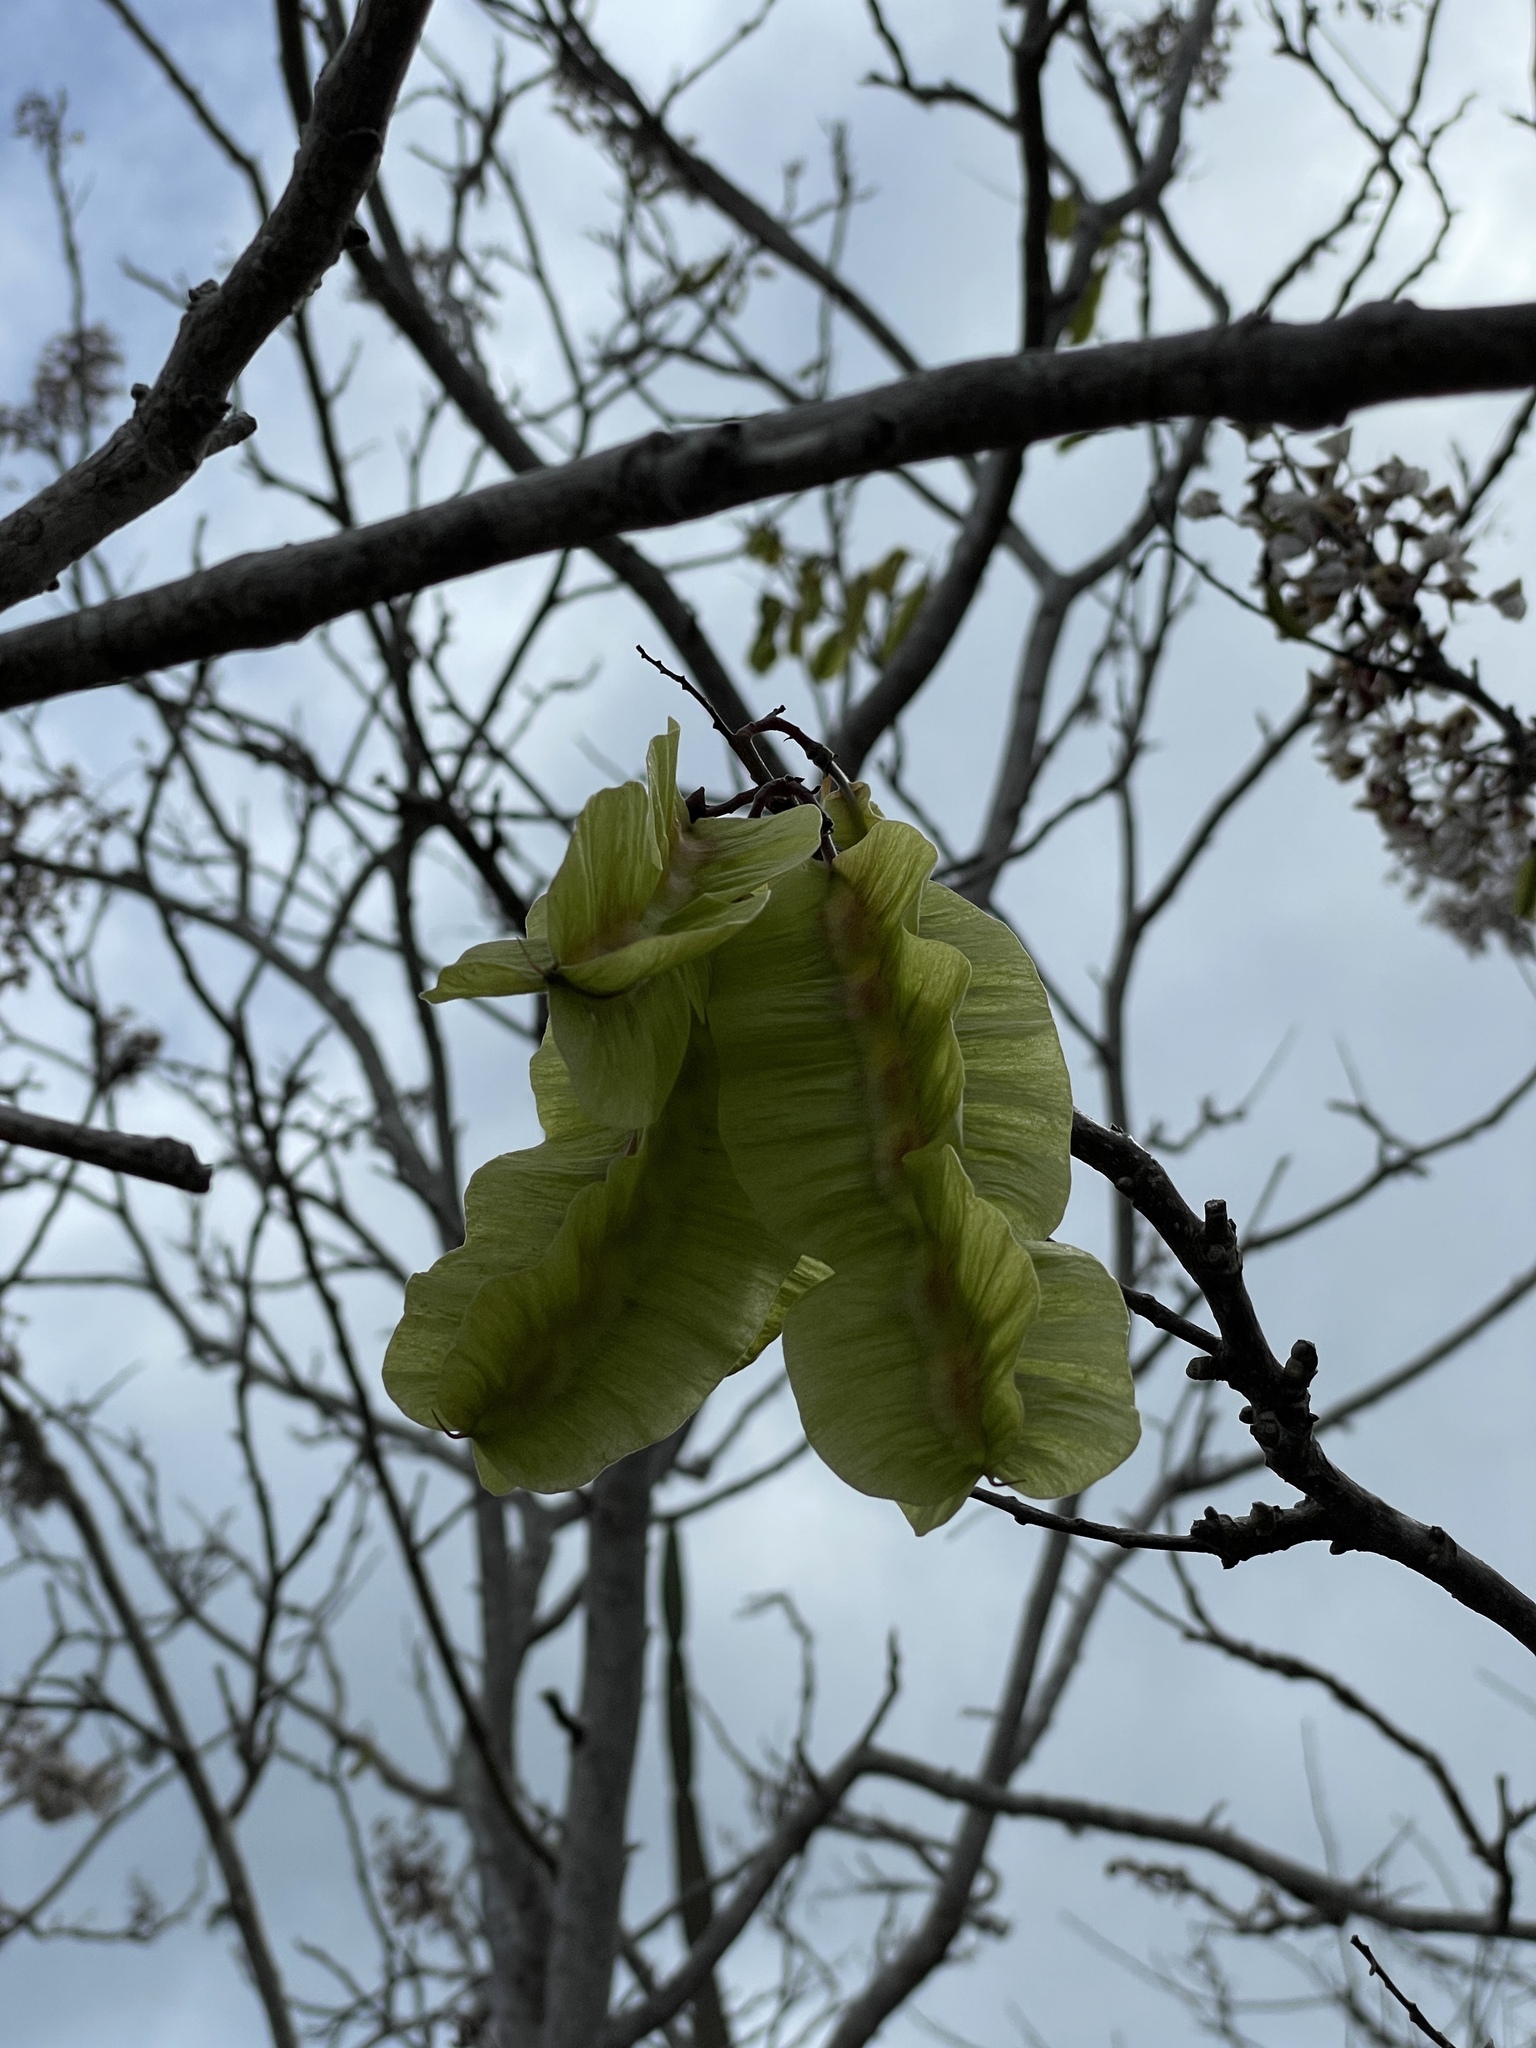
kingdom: Plantae
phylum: Tracheophyta
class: Magnoliopsida
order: Fabales
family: Fabaceae
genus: Piscidia
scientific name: Piscidia carthagenensis
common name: Stinkwood
